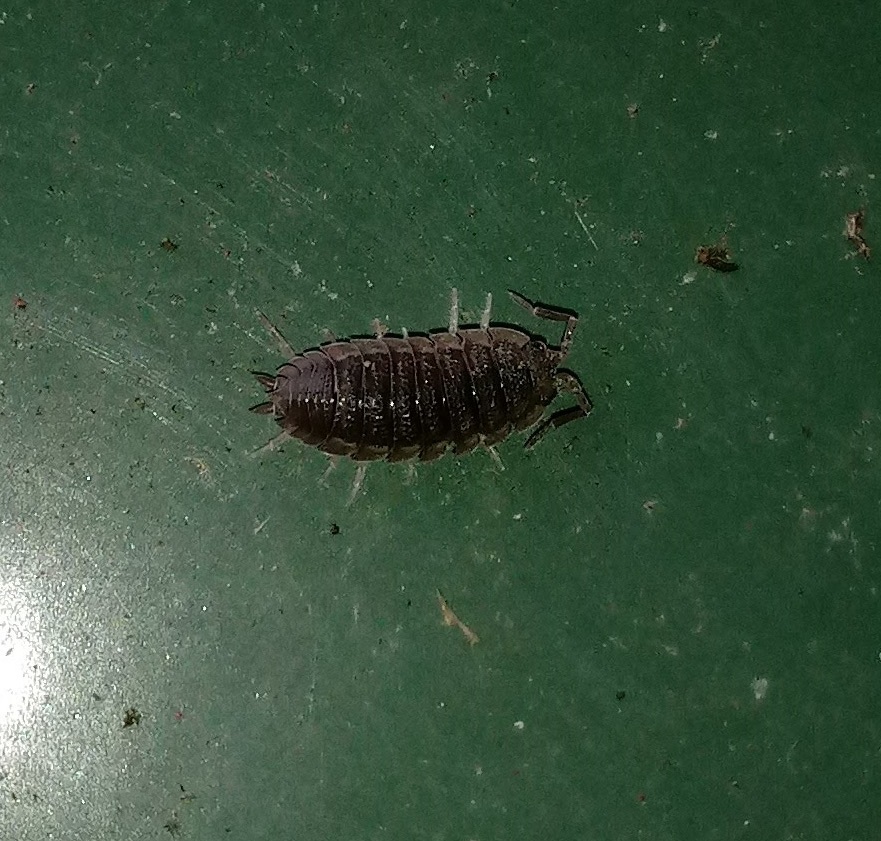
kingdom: Animalia
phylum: Arthropoda
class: Malacostraca
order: Isopoda
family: Porcellionidae
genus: Porcellio
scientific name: Porcellio scaber
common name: Common rough woodlouse
